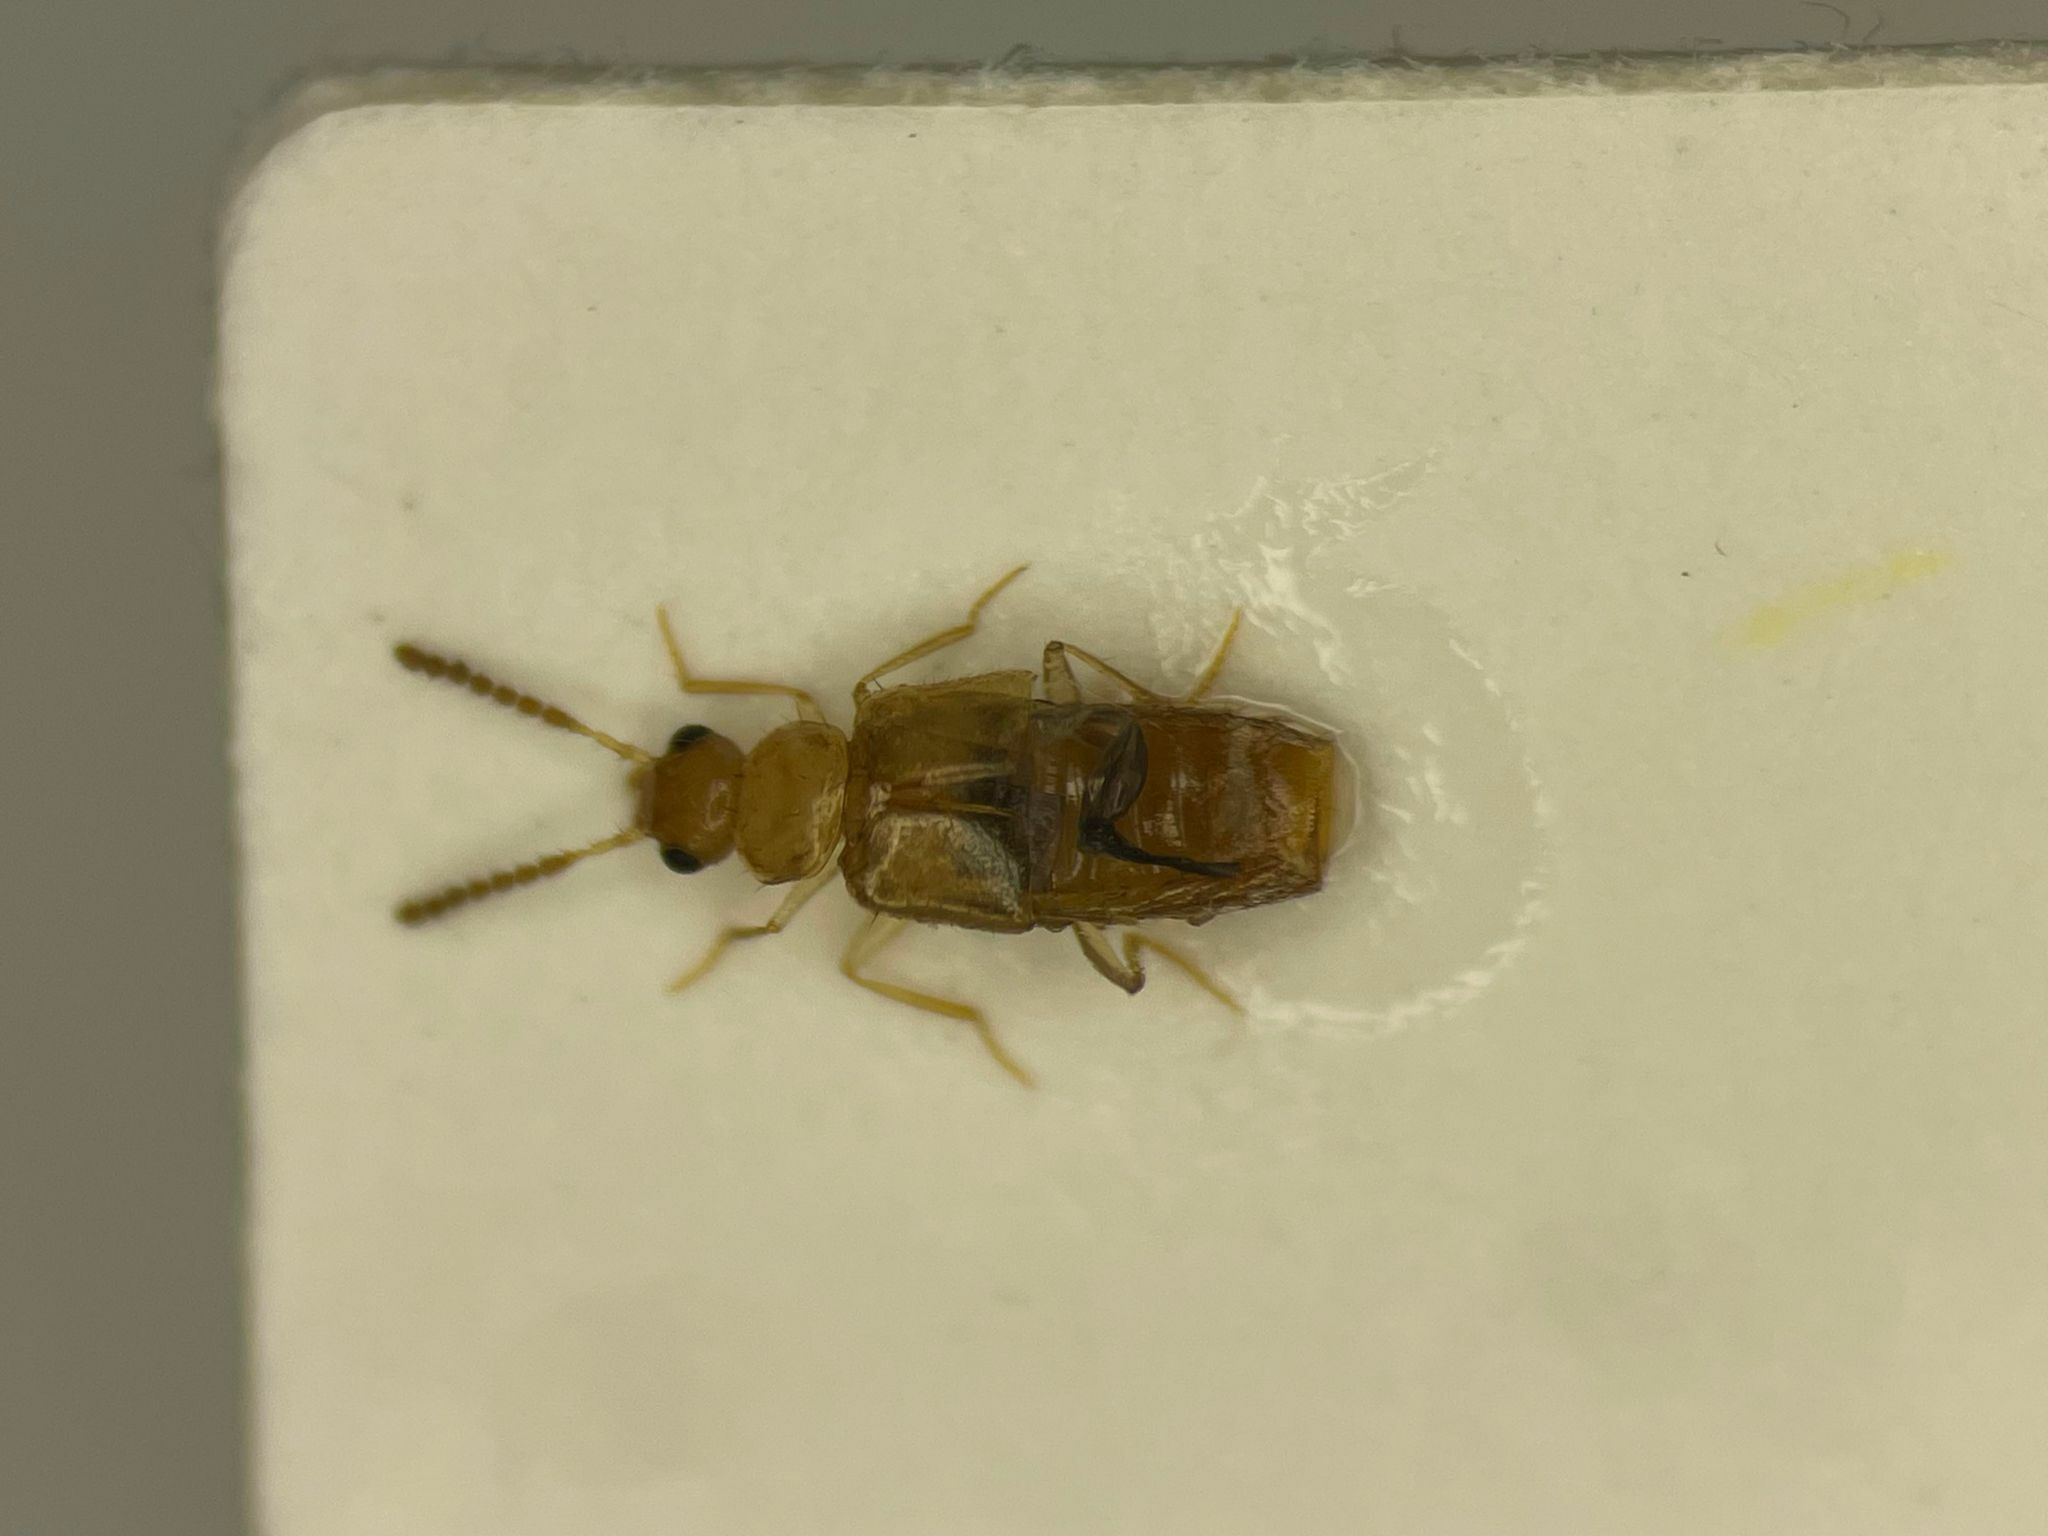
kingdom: Animalia
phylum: Arthropoda
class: Insecta
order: Coleoptera
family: Staphylinidae
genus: Gyrophaena
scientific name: Gyrophaena chippewa
